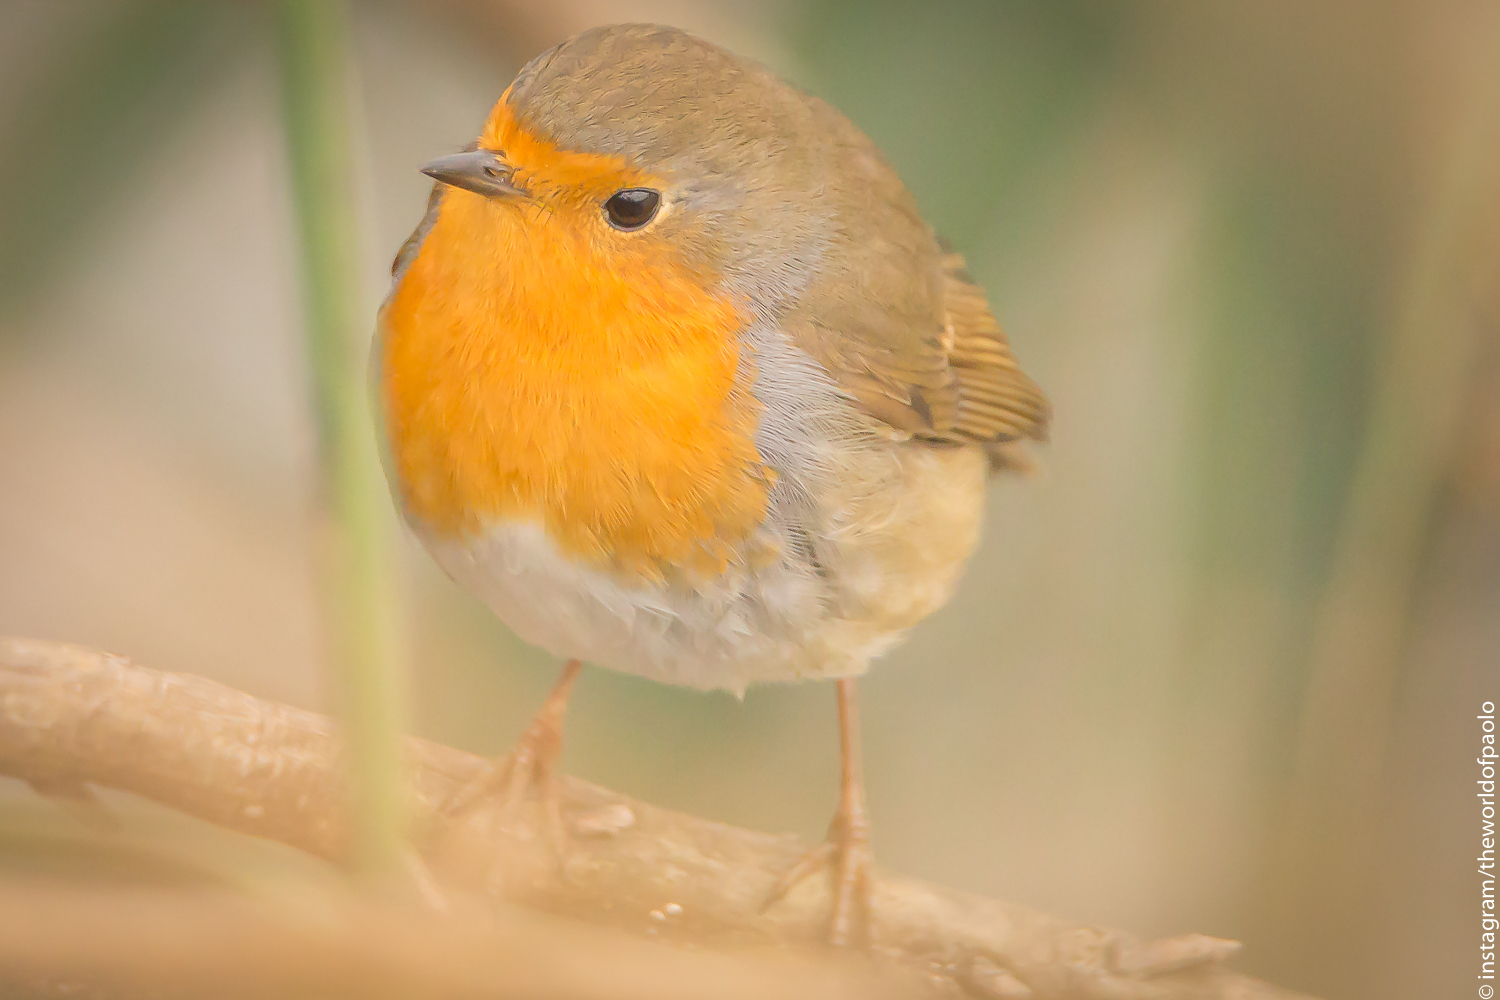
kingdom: Animalia
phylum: Chordata
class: Aves
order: Passeriformes
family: Muscicapidae
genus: Erithacus
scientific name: Erithacus rubecula
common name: European robin
